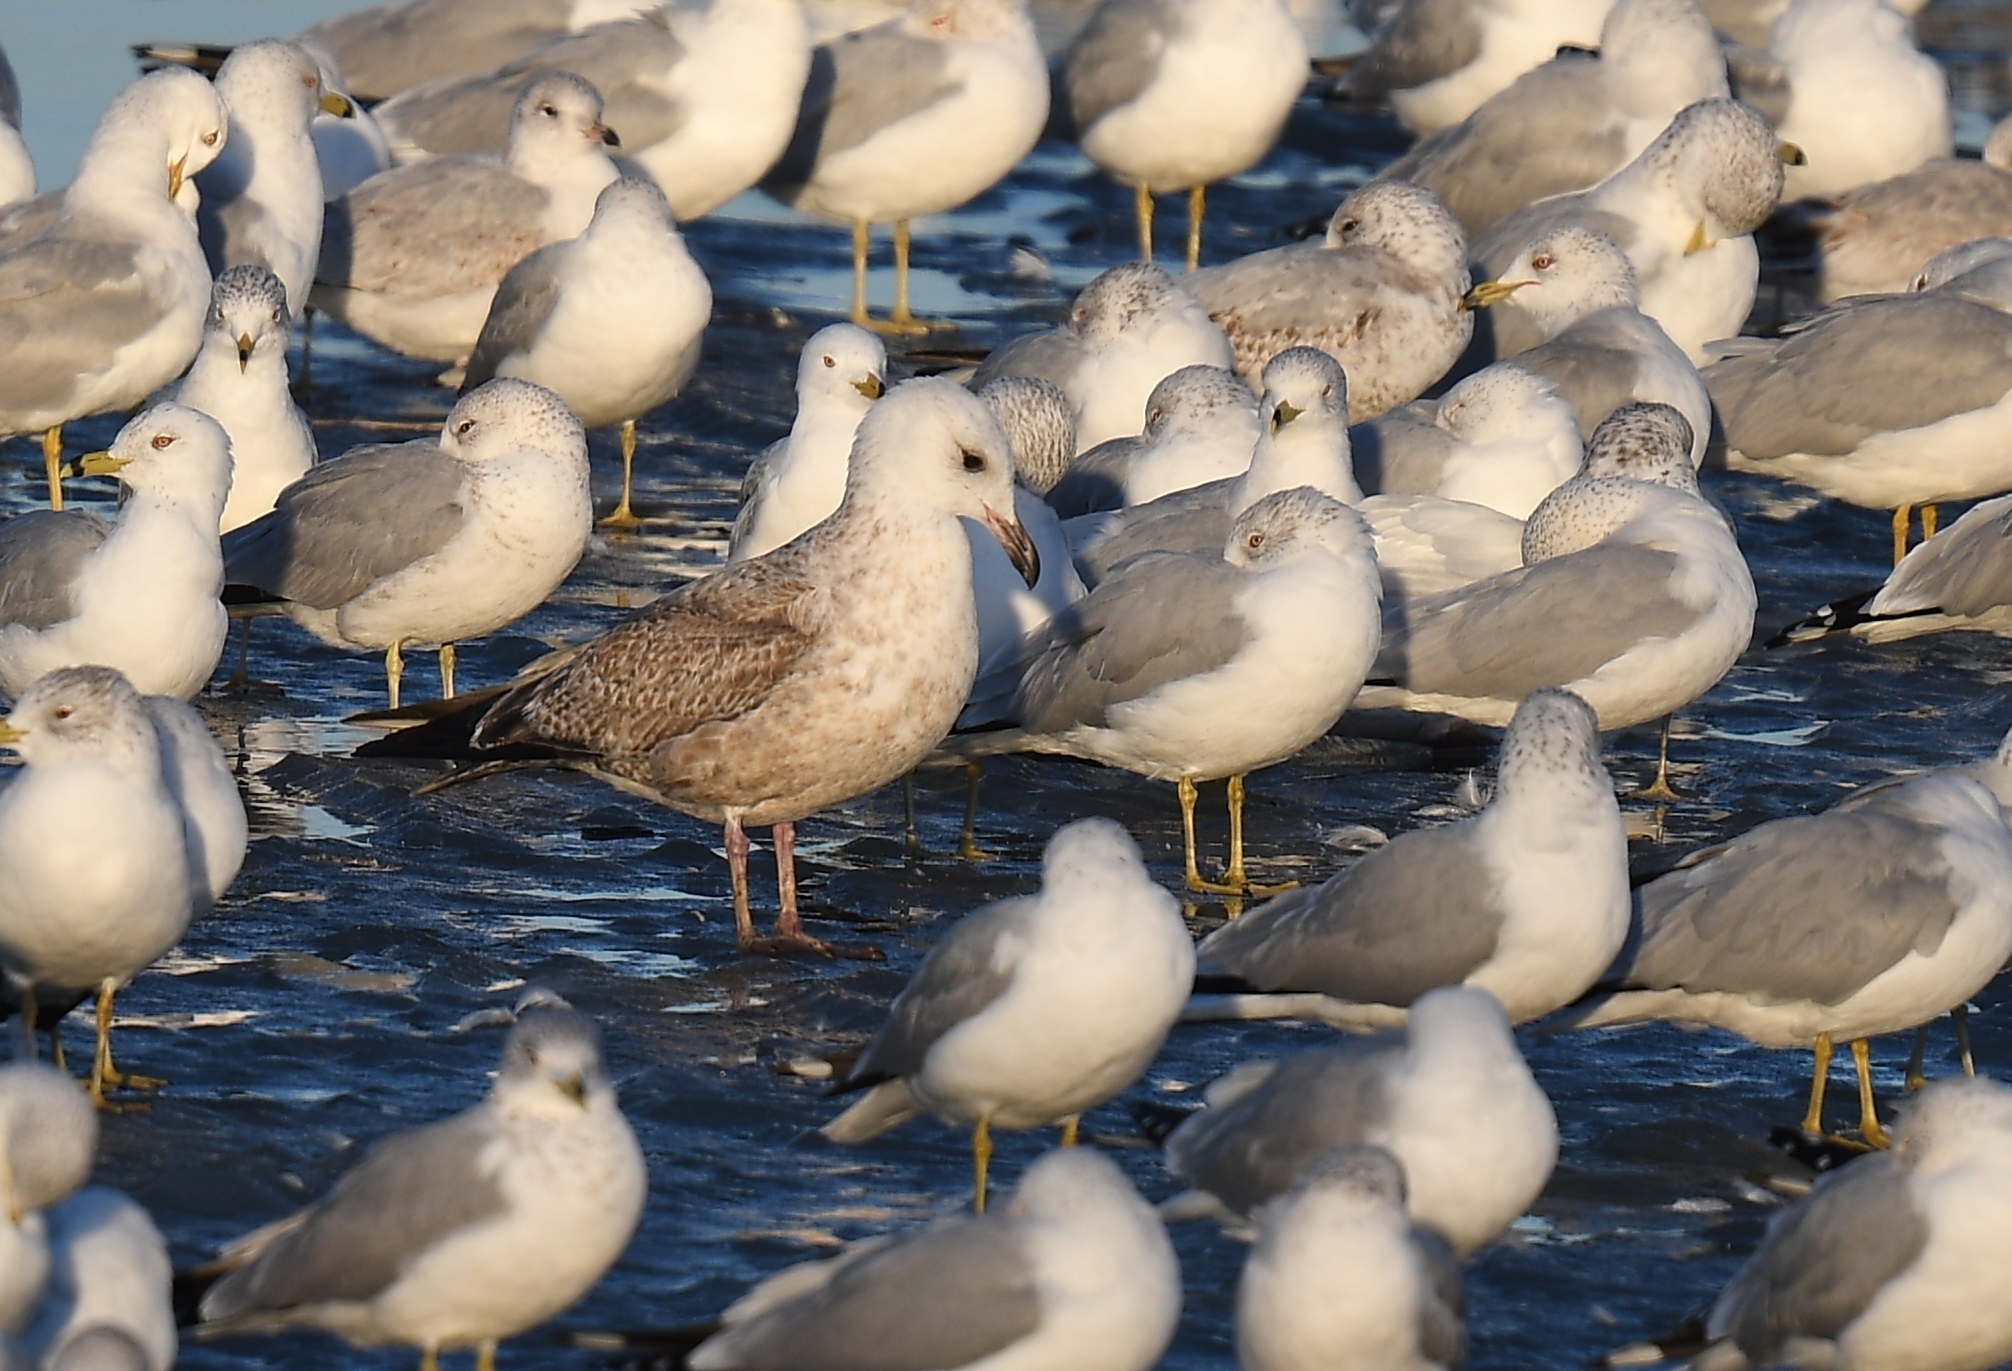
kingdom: Animalia
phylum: Chordata
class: Aves
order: Charadriiformes
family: Laridae
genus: Larus
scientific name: Larus argentatus
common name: Herring gull
